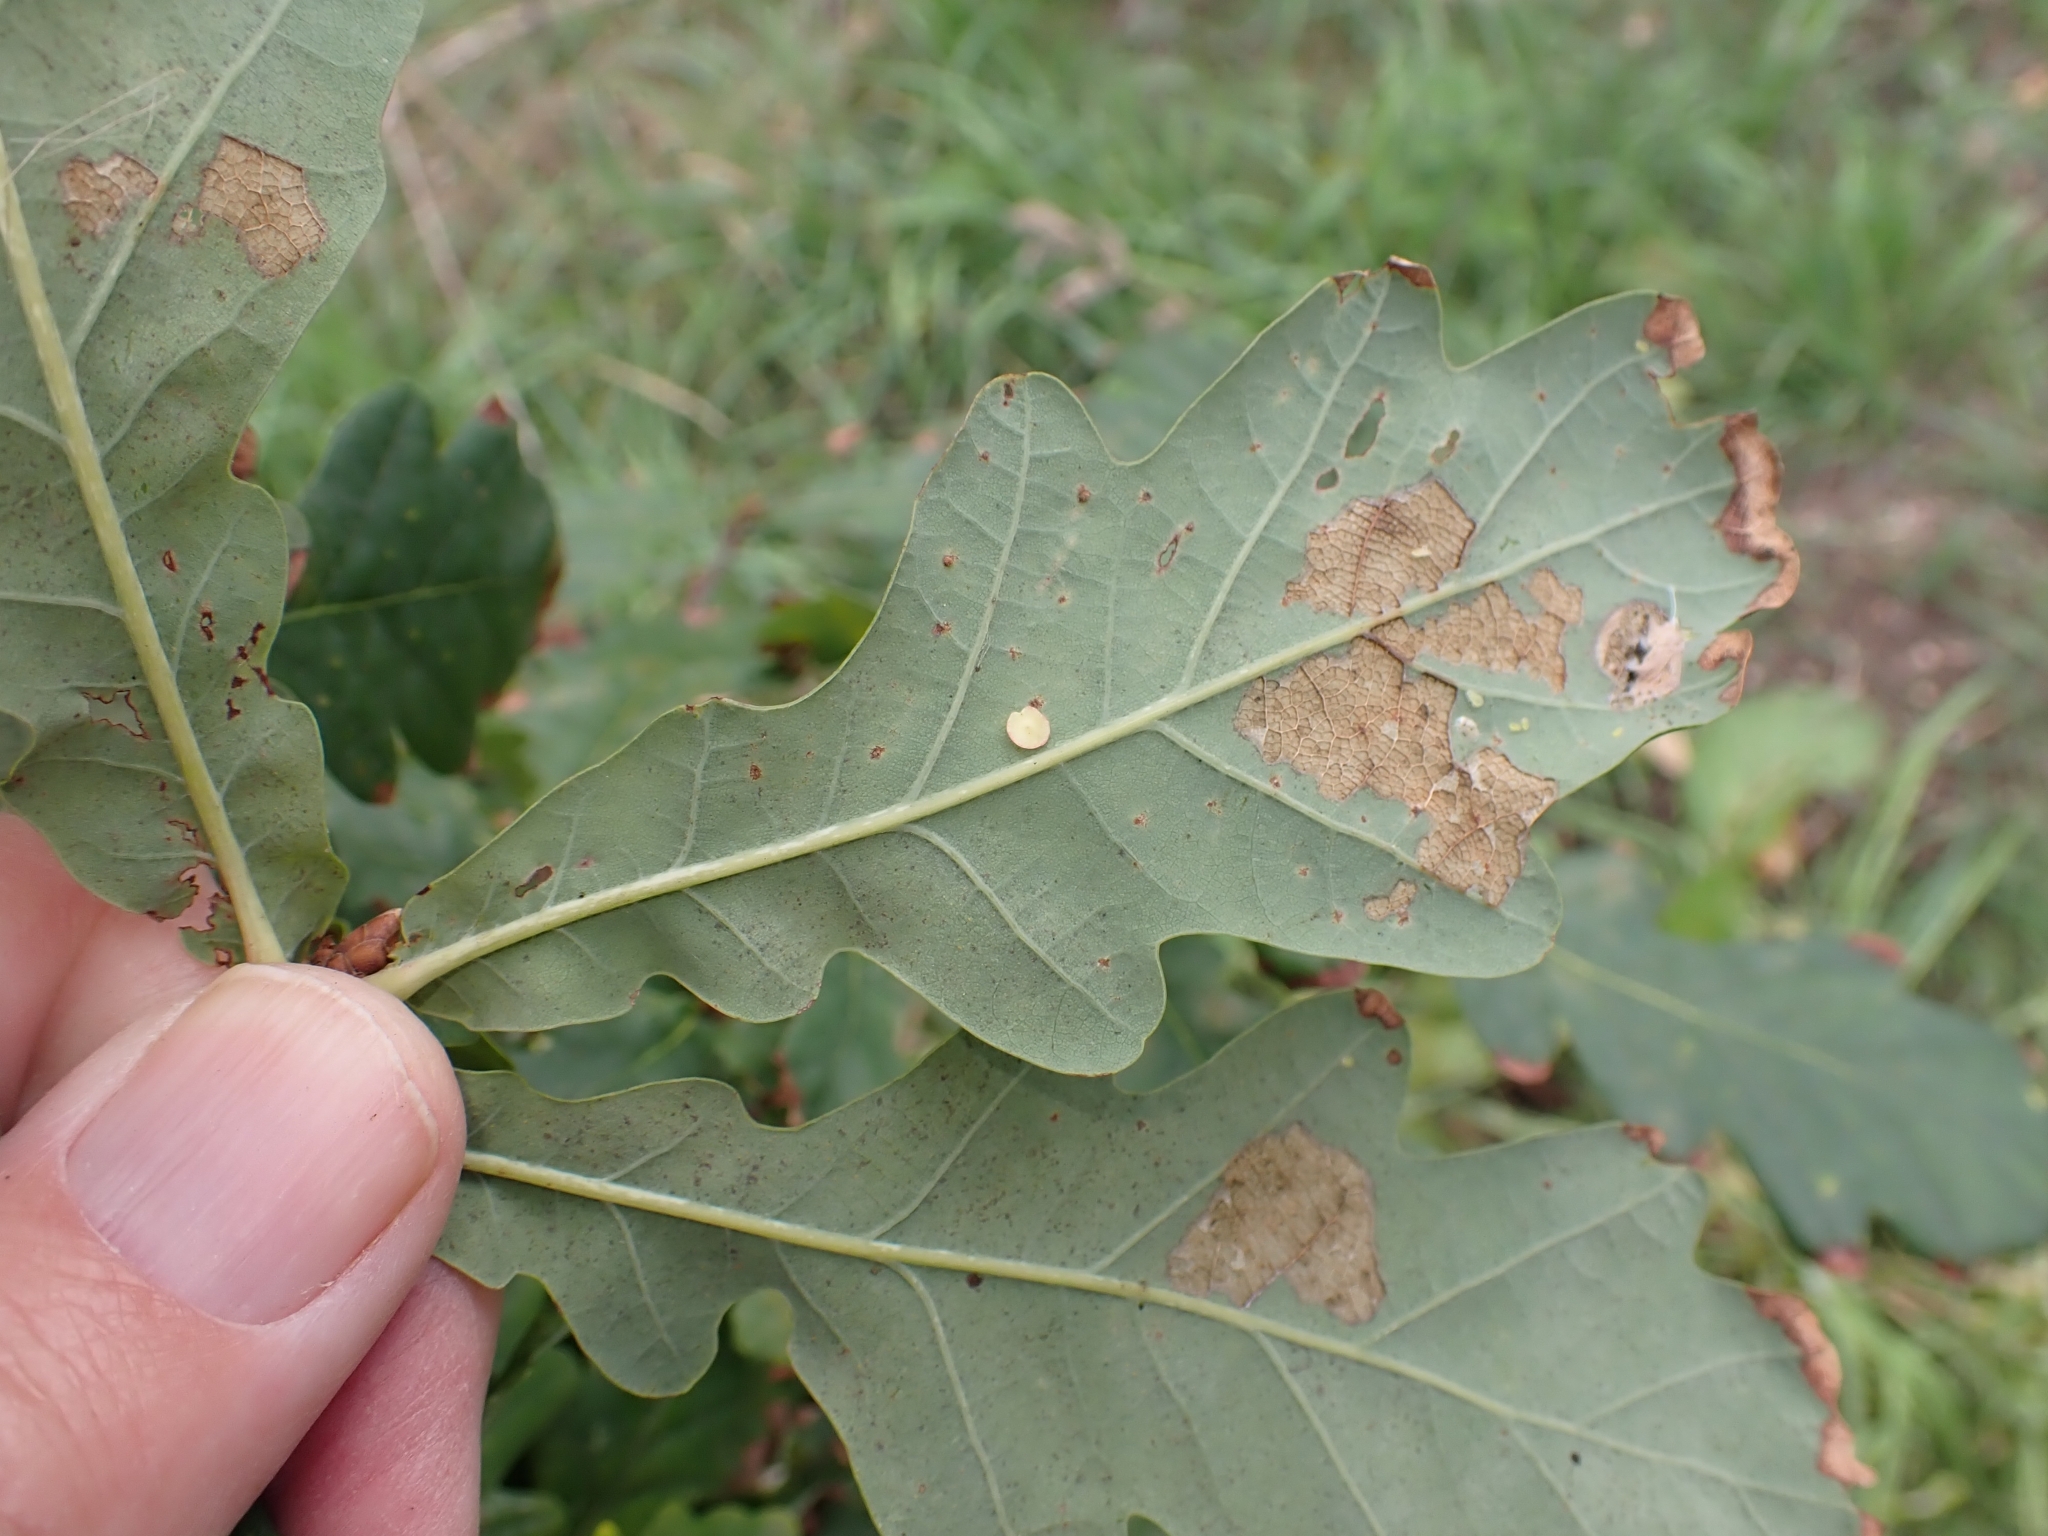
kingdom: Animalia
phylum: Arthropoda
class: Insecta
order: Hymenoptera
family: Cynipidae
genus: Neuroterus
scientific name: Neuroterus albipes
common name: Smooth spangle gall
